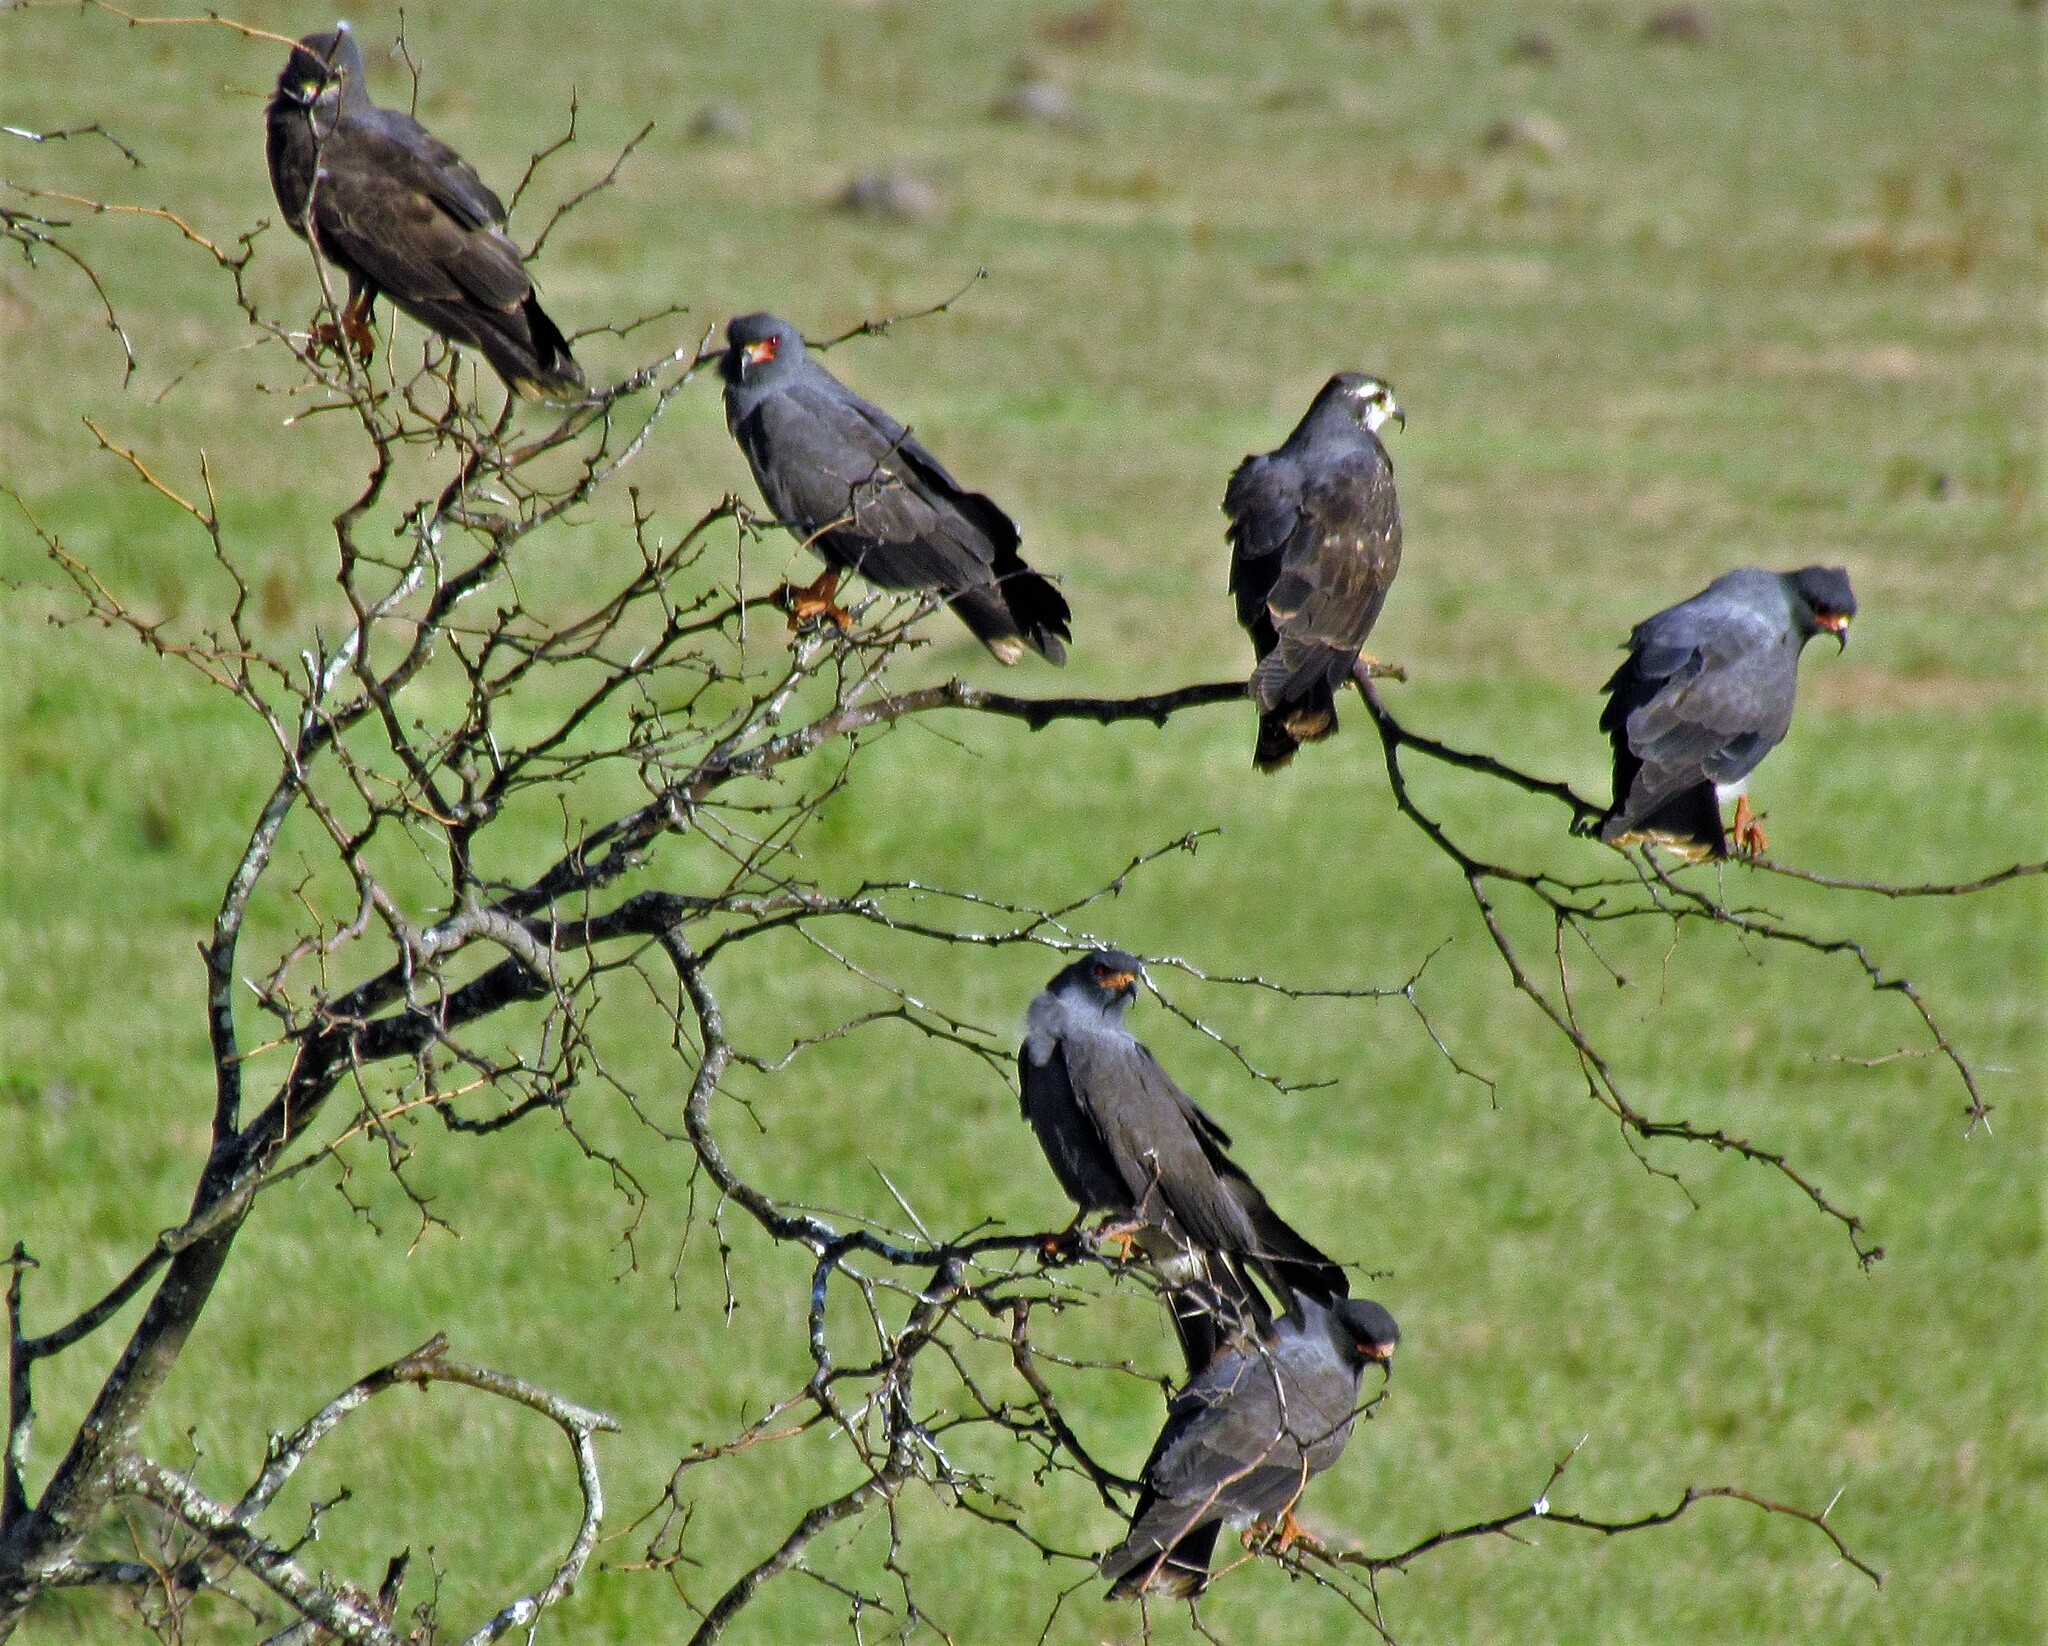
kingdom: Animalia
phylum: Chordata
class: Aves
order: Accipitriformes
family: Accipitridae
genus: Rostrhamus
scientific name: Rostrhamus sociabilis
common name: Snail kite
